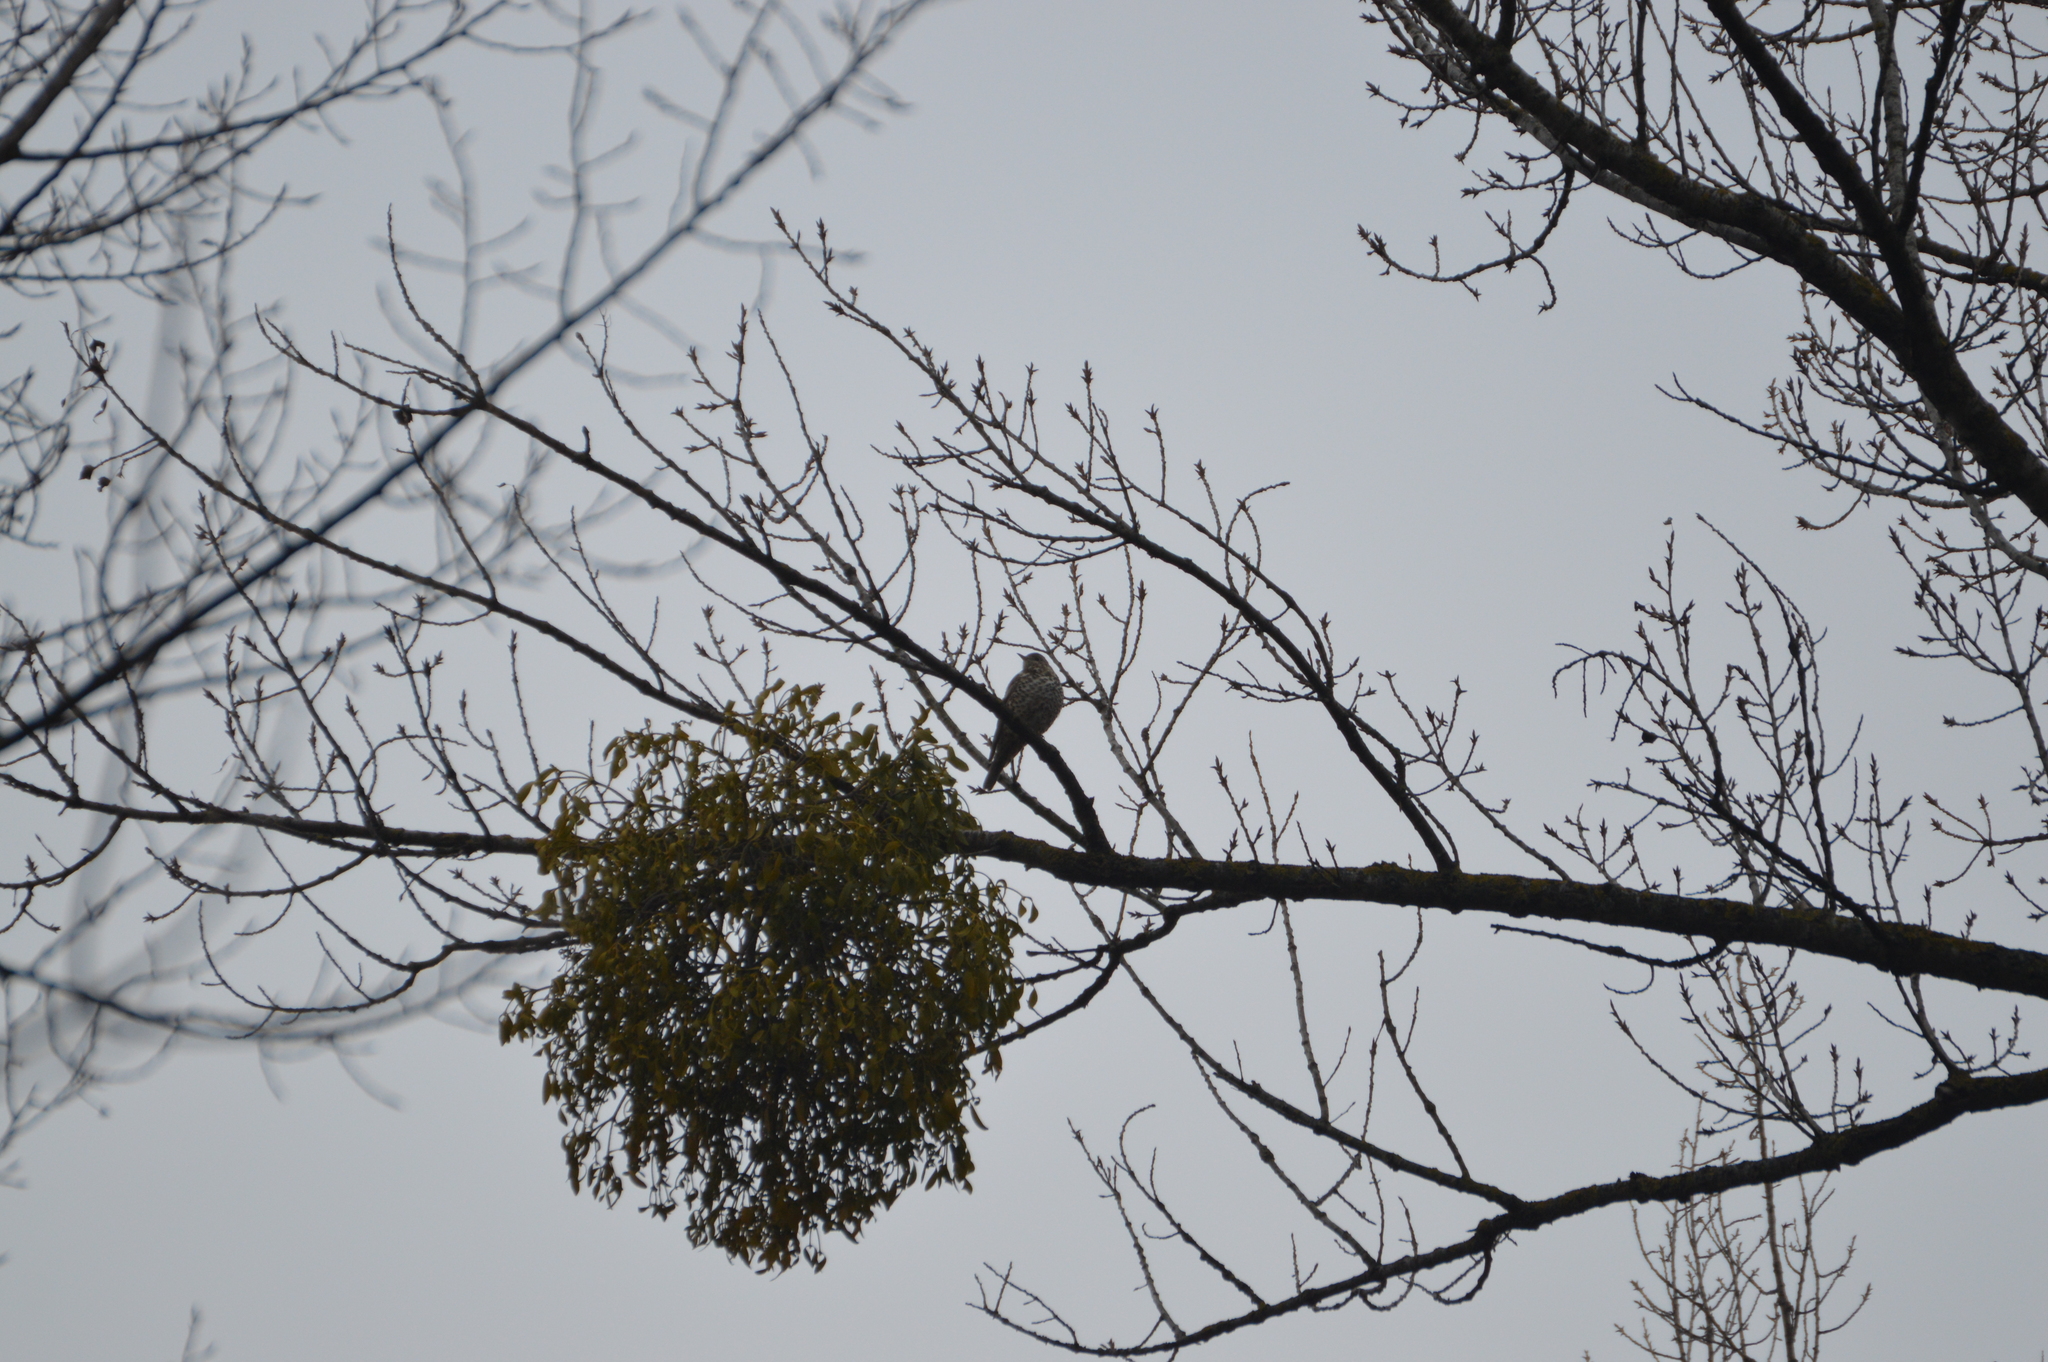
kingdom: Animalia
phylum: Chordata
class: Aves
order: Passeriformes
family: Turdidae
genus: Turdus
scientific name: Turdus viscivorus
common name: Mistle thrush
